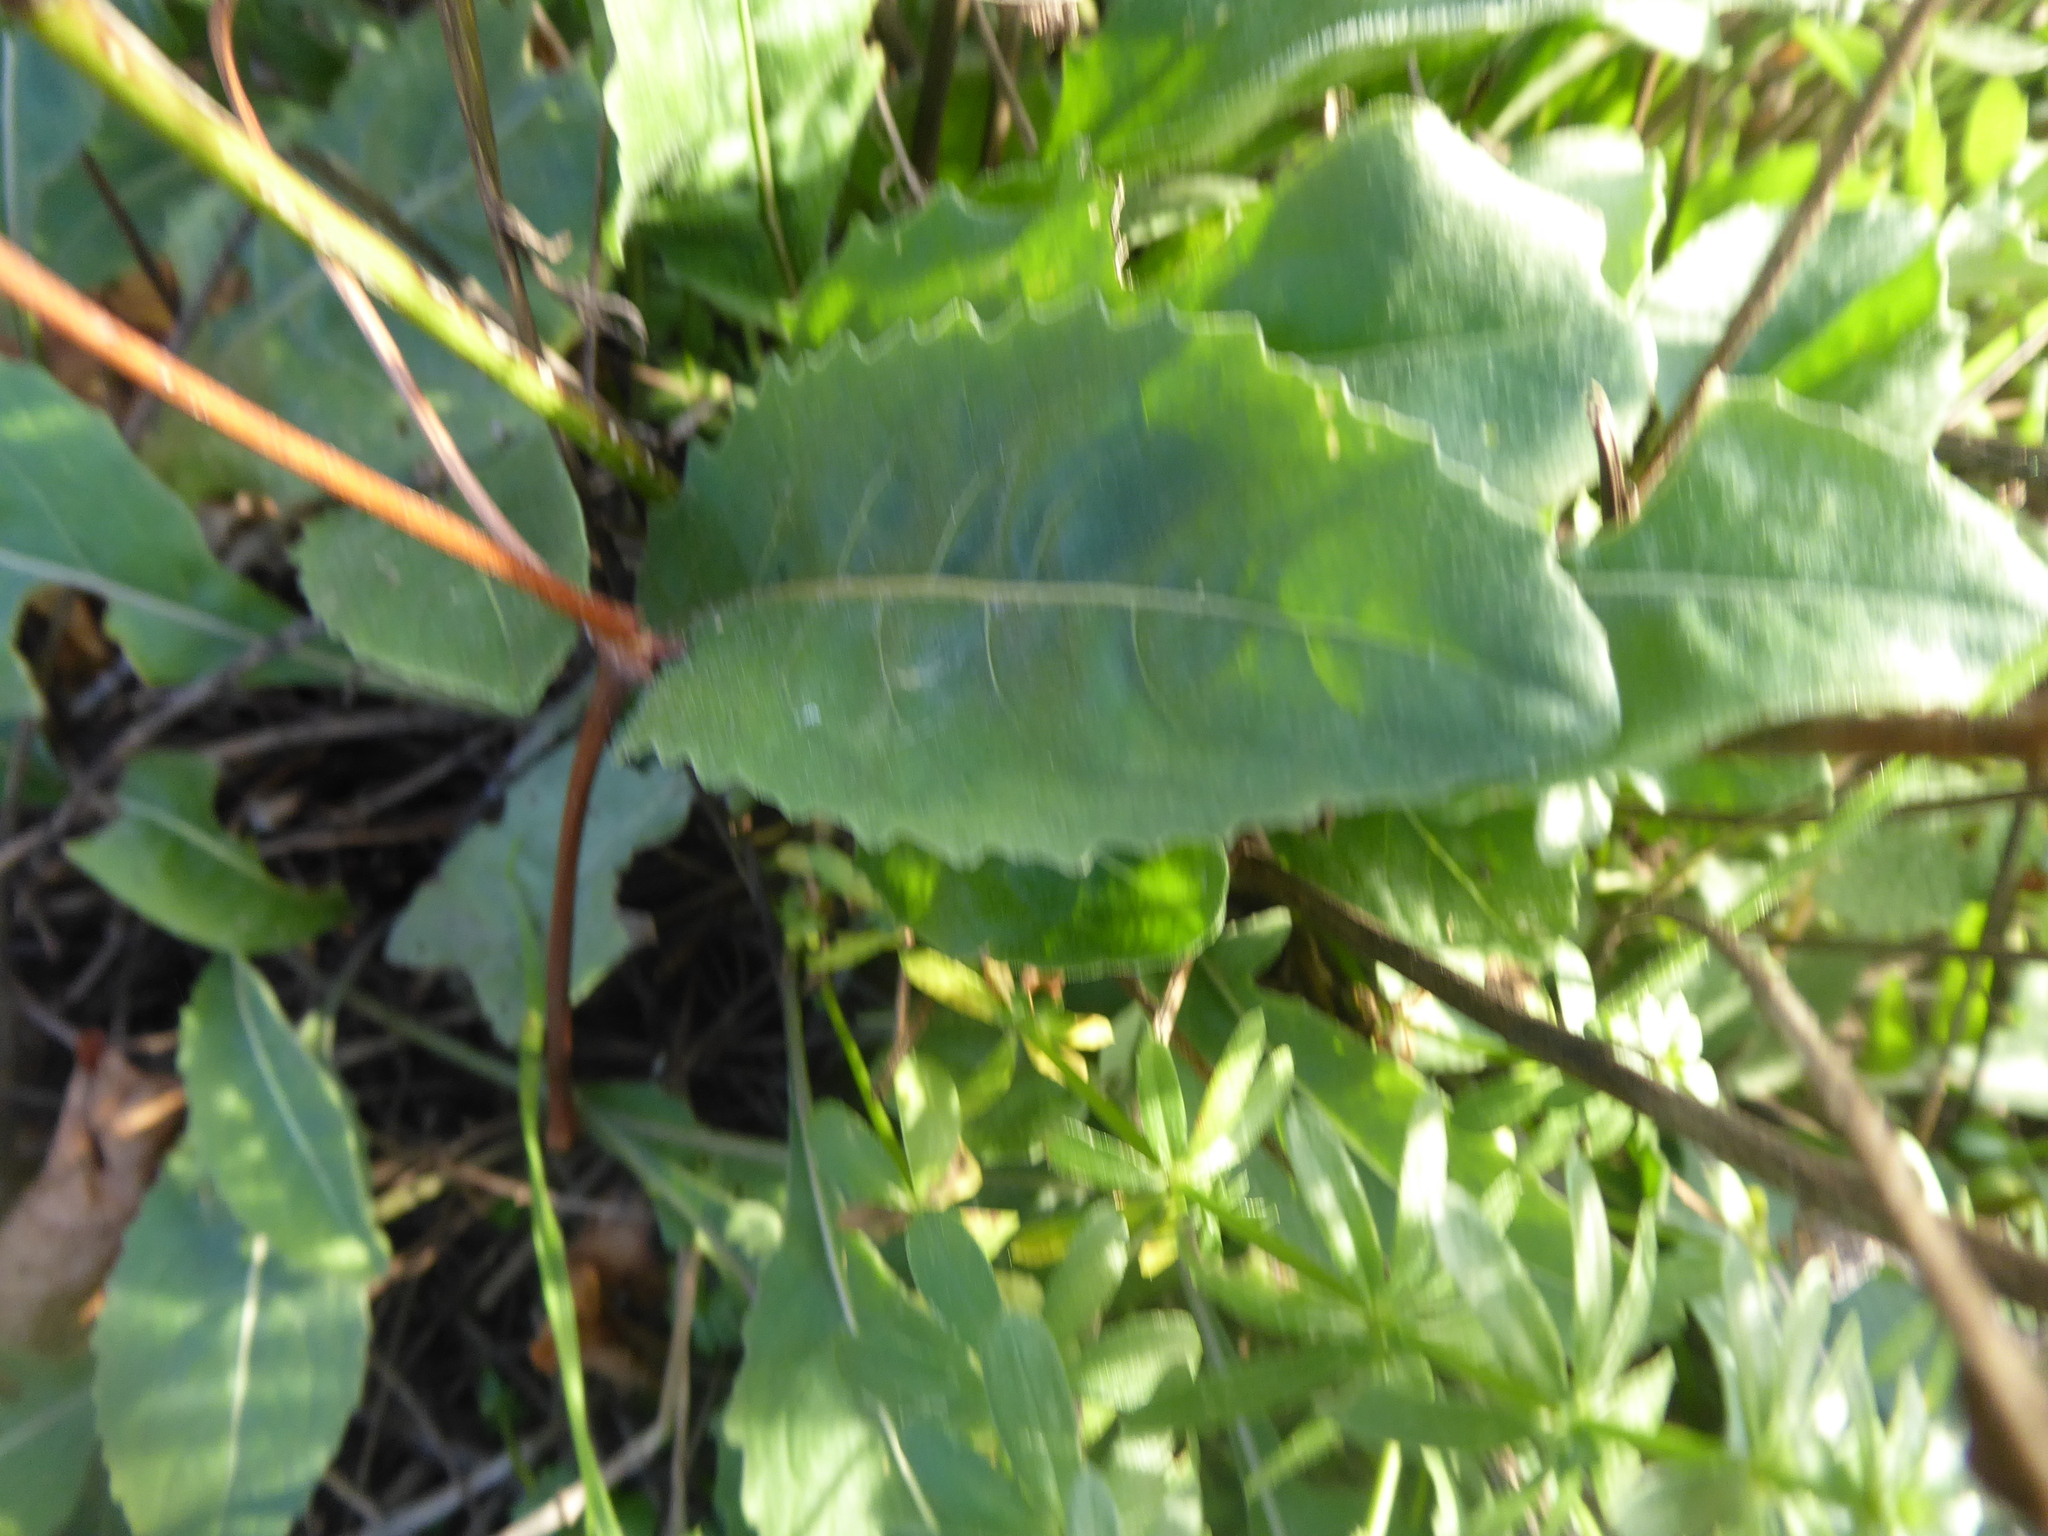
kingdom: Plantae
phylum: Tracheophyta
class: Magnoliopsida
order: Asterales
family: Asteraceae
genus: Centaurea
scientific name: Centaurea scabiosa
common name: Greater knapweed
